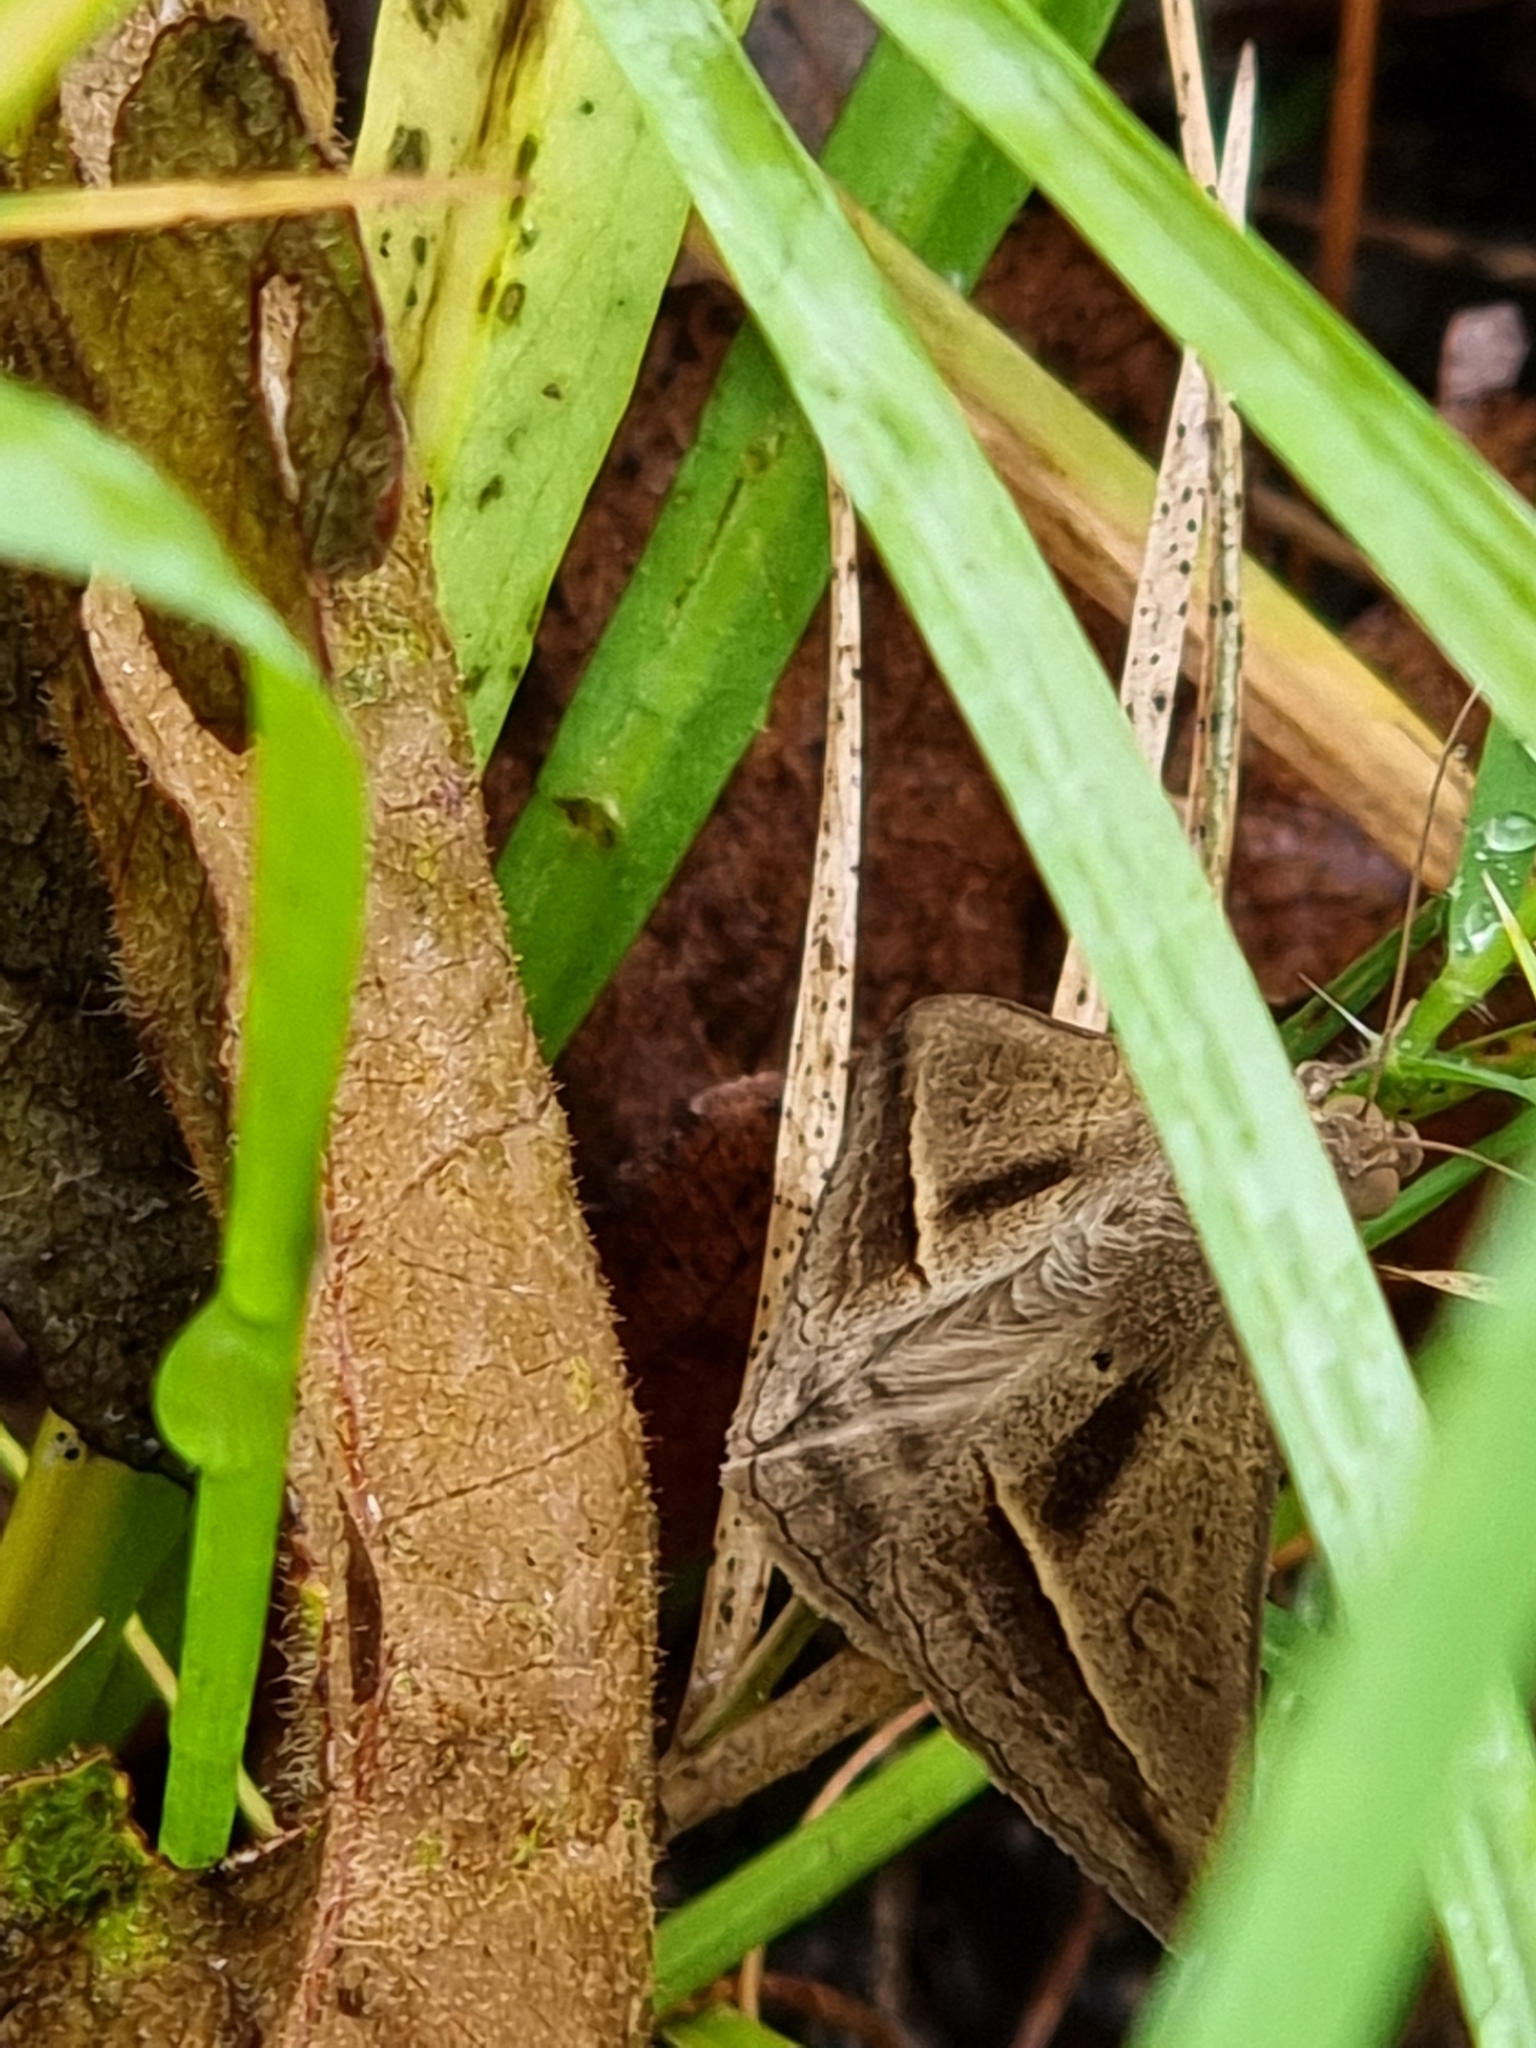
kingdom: Animalia
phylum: Arthropoda
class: Insecta
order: Lepidoptera
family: Erebidae
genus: Mocis
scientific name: Mocis frugalis
